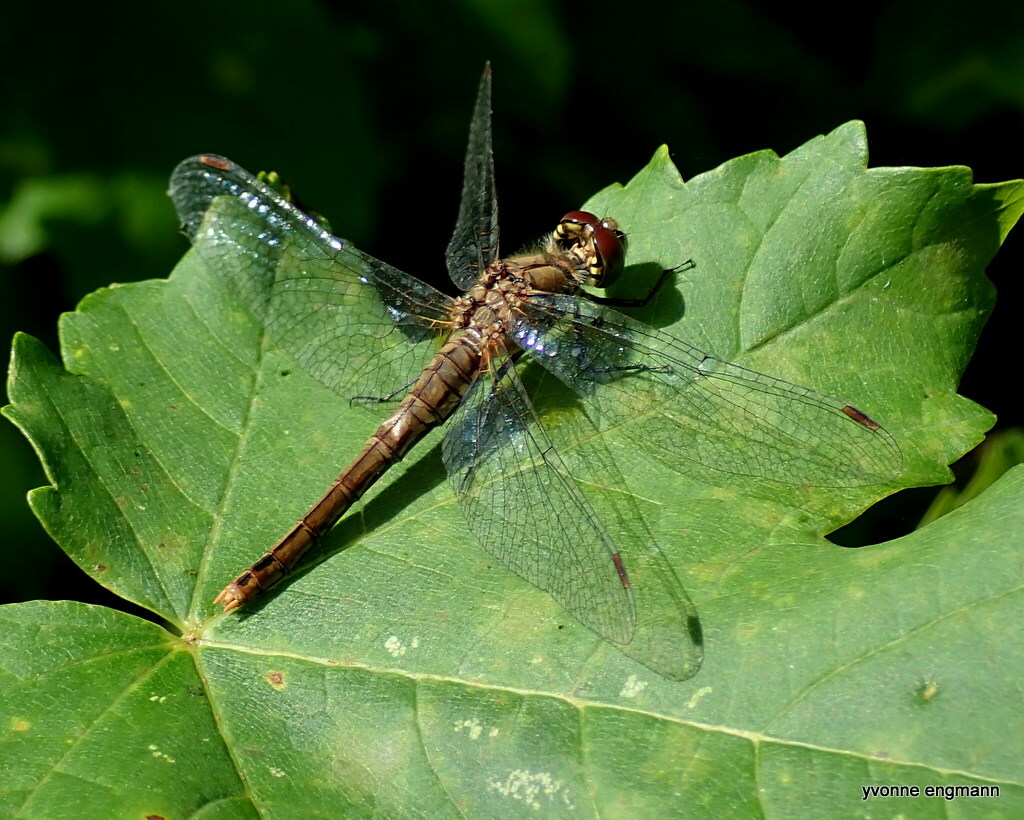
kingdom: Animalia
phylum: Arthropoda
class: Insecta
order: Odonata
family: Libellulidae
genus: Sympetrum
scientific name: Sympetrum sanguineum
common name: Ruddy darter
